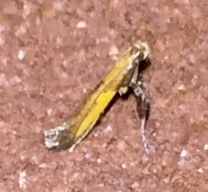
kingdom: Animalia
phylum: Arthropoda
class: Insecta
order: Lepidoptera
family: Gracillariidae
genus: Caloptilia
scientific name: Caloptilia azaleella
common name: Azalea leafminer
